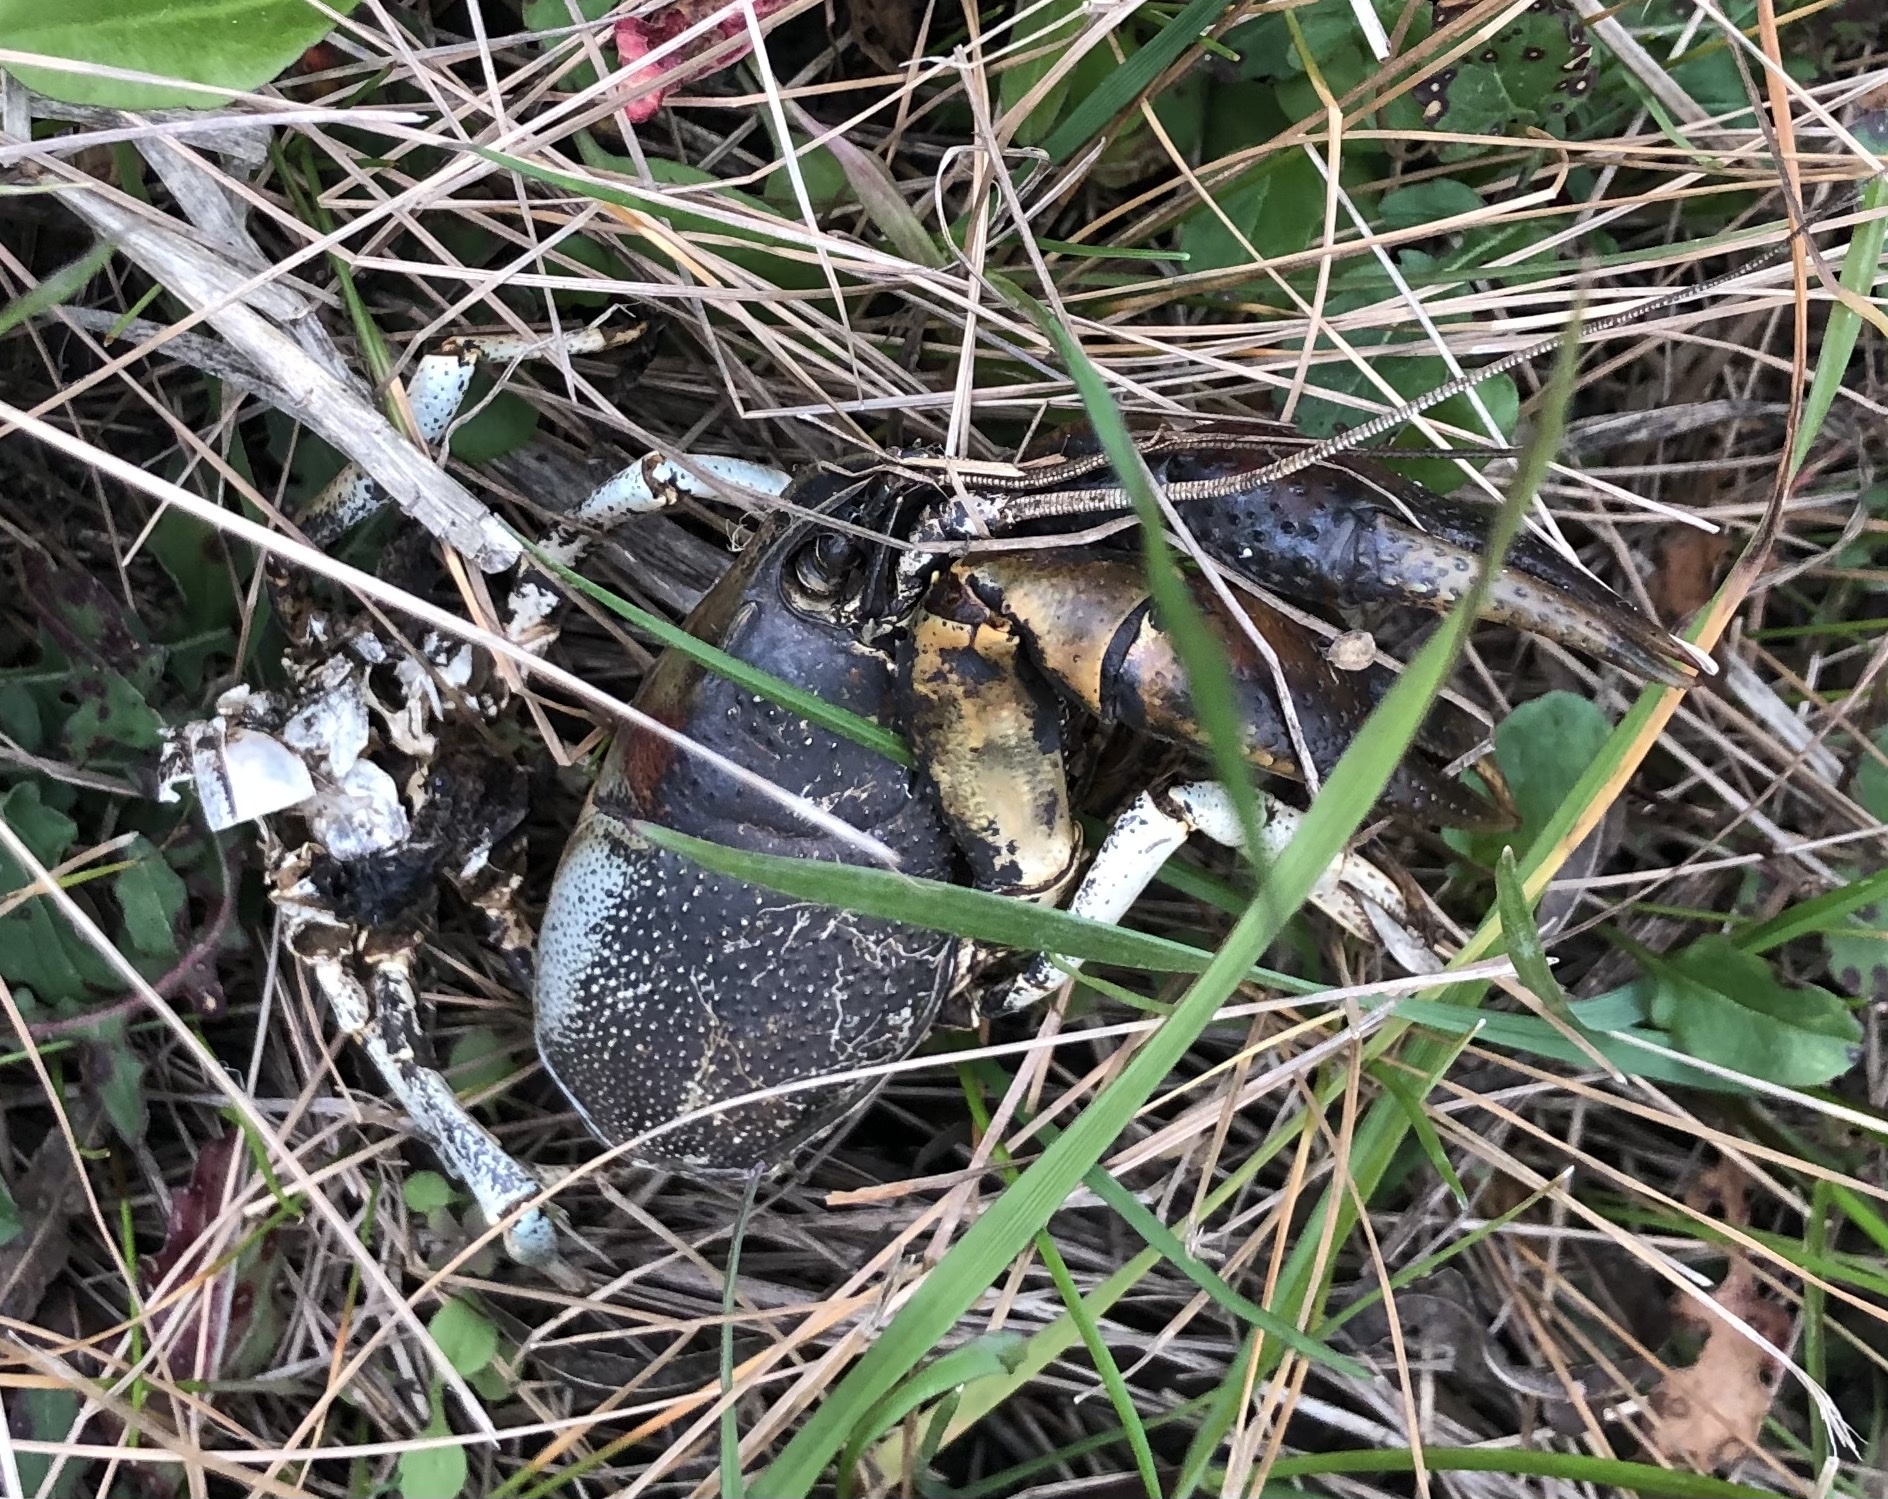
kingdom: Animalia
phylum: Arthropoda
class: Malacostraca
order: Decapoda
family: Cambaridae
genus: Procambarus
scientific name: Procambarus simulans
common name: Southern plains crayfish
